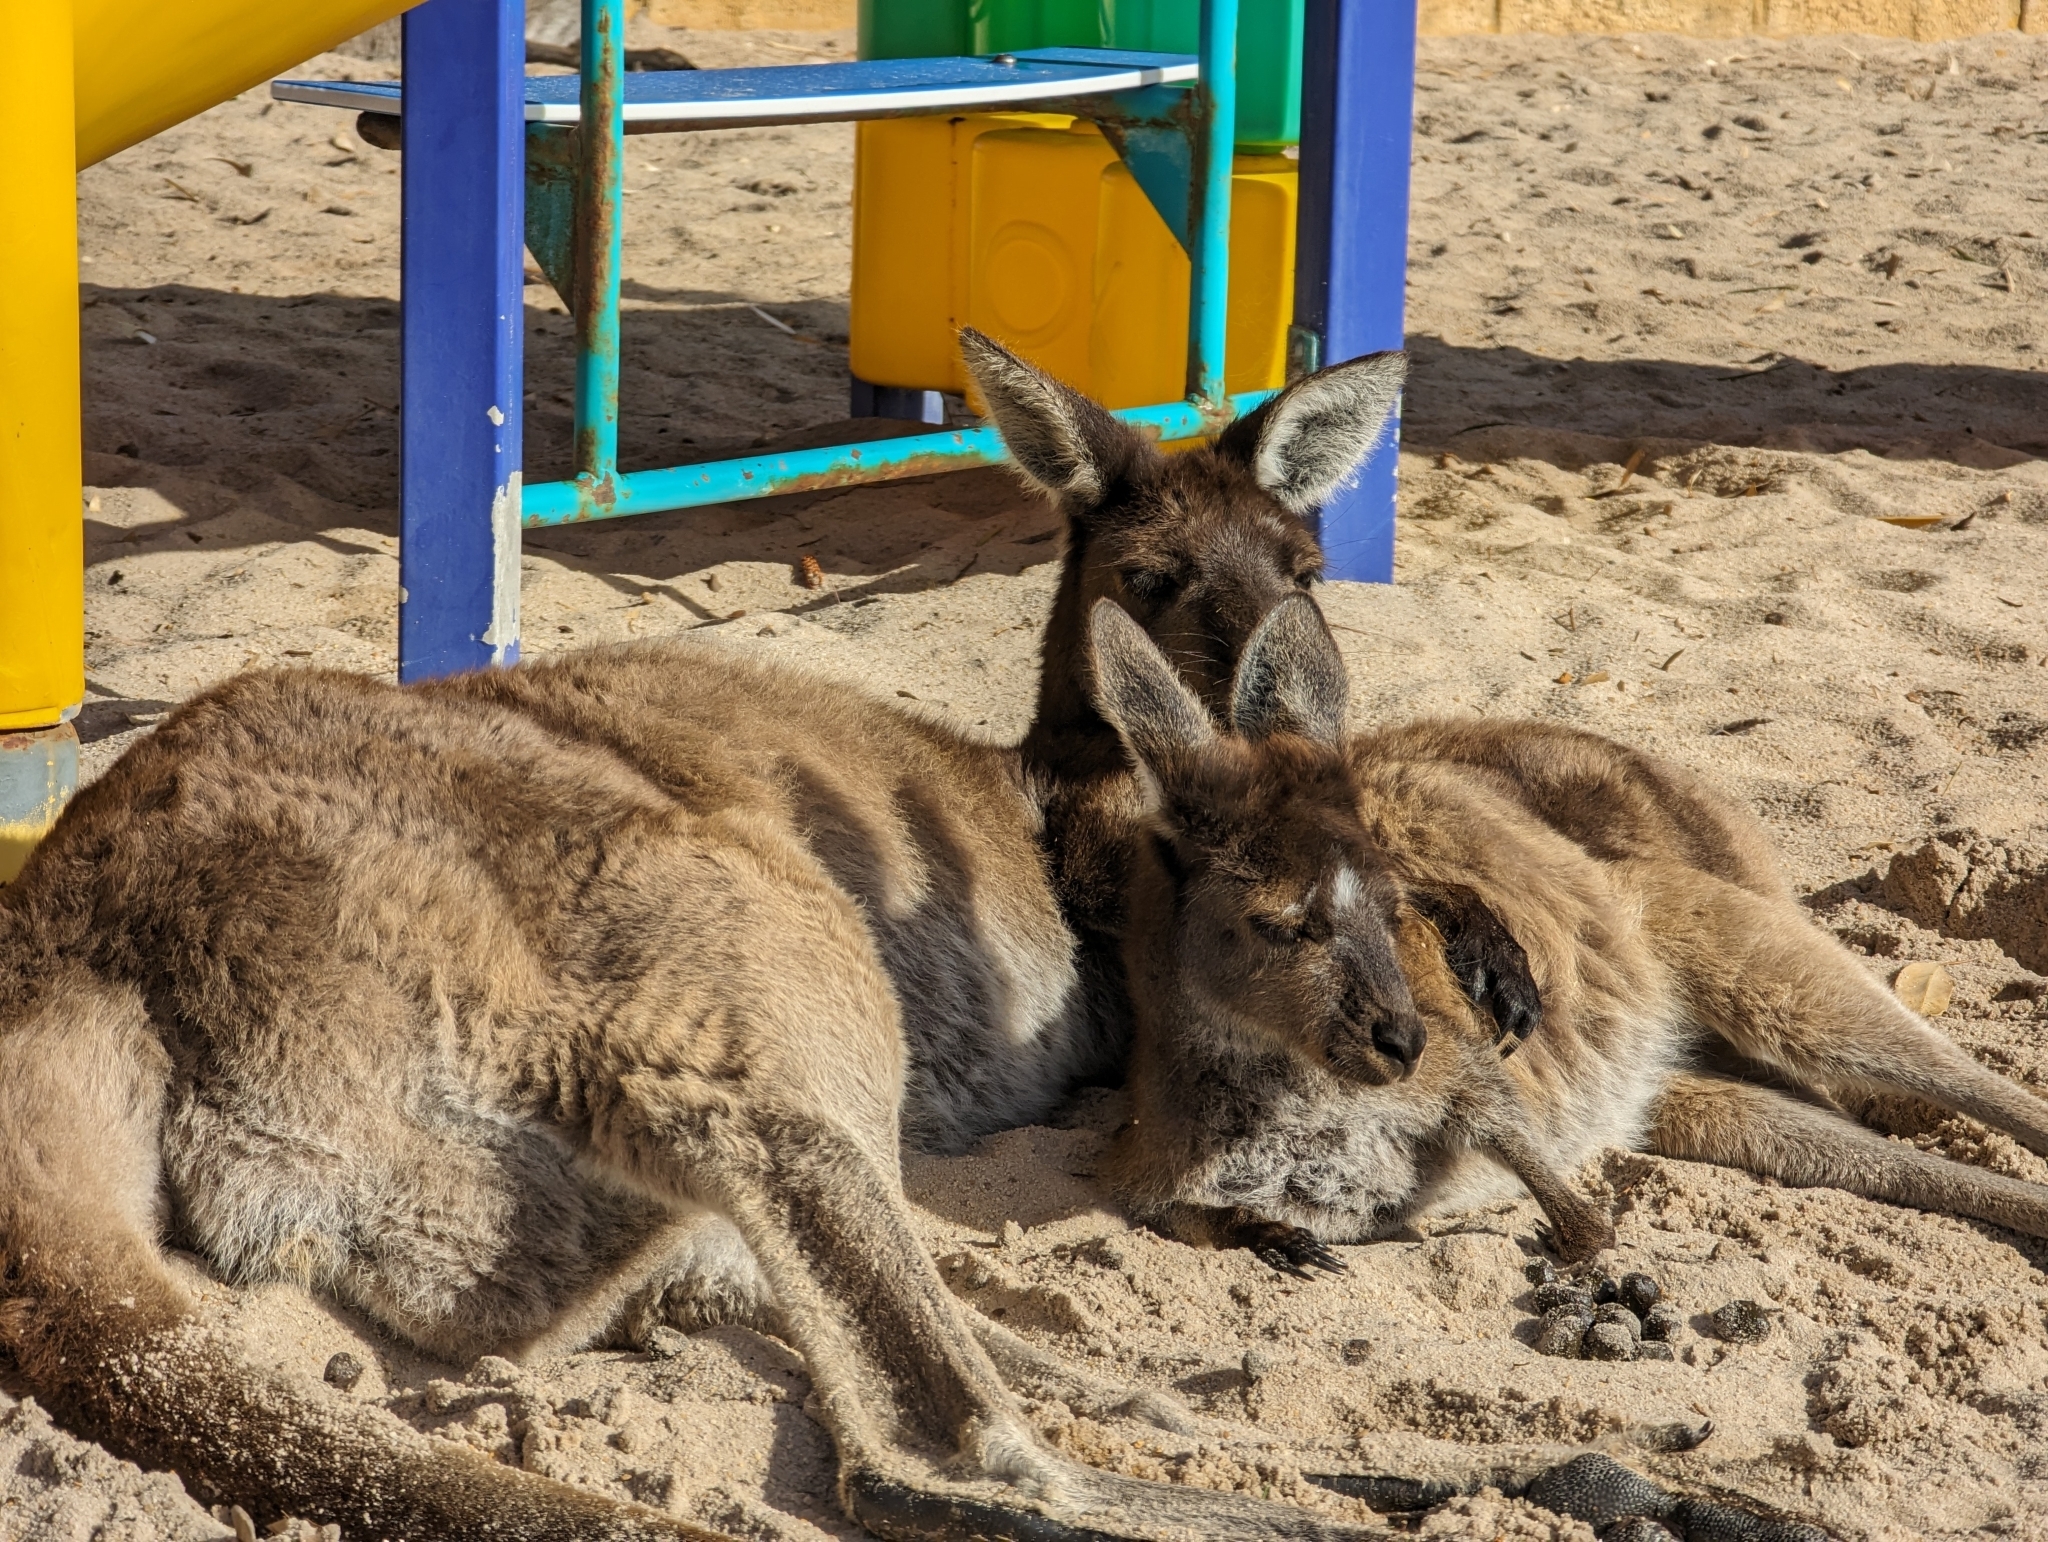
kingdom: Animalia
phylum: Chordata
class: Mammalia
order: Diprotodontia
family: Macropodidae
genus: Macropus
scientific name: Macropus fuliginosus
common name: Western grey kangaroo
